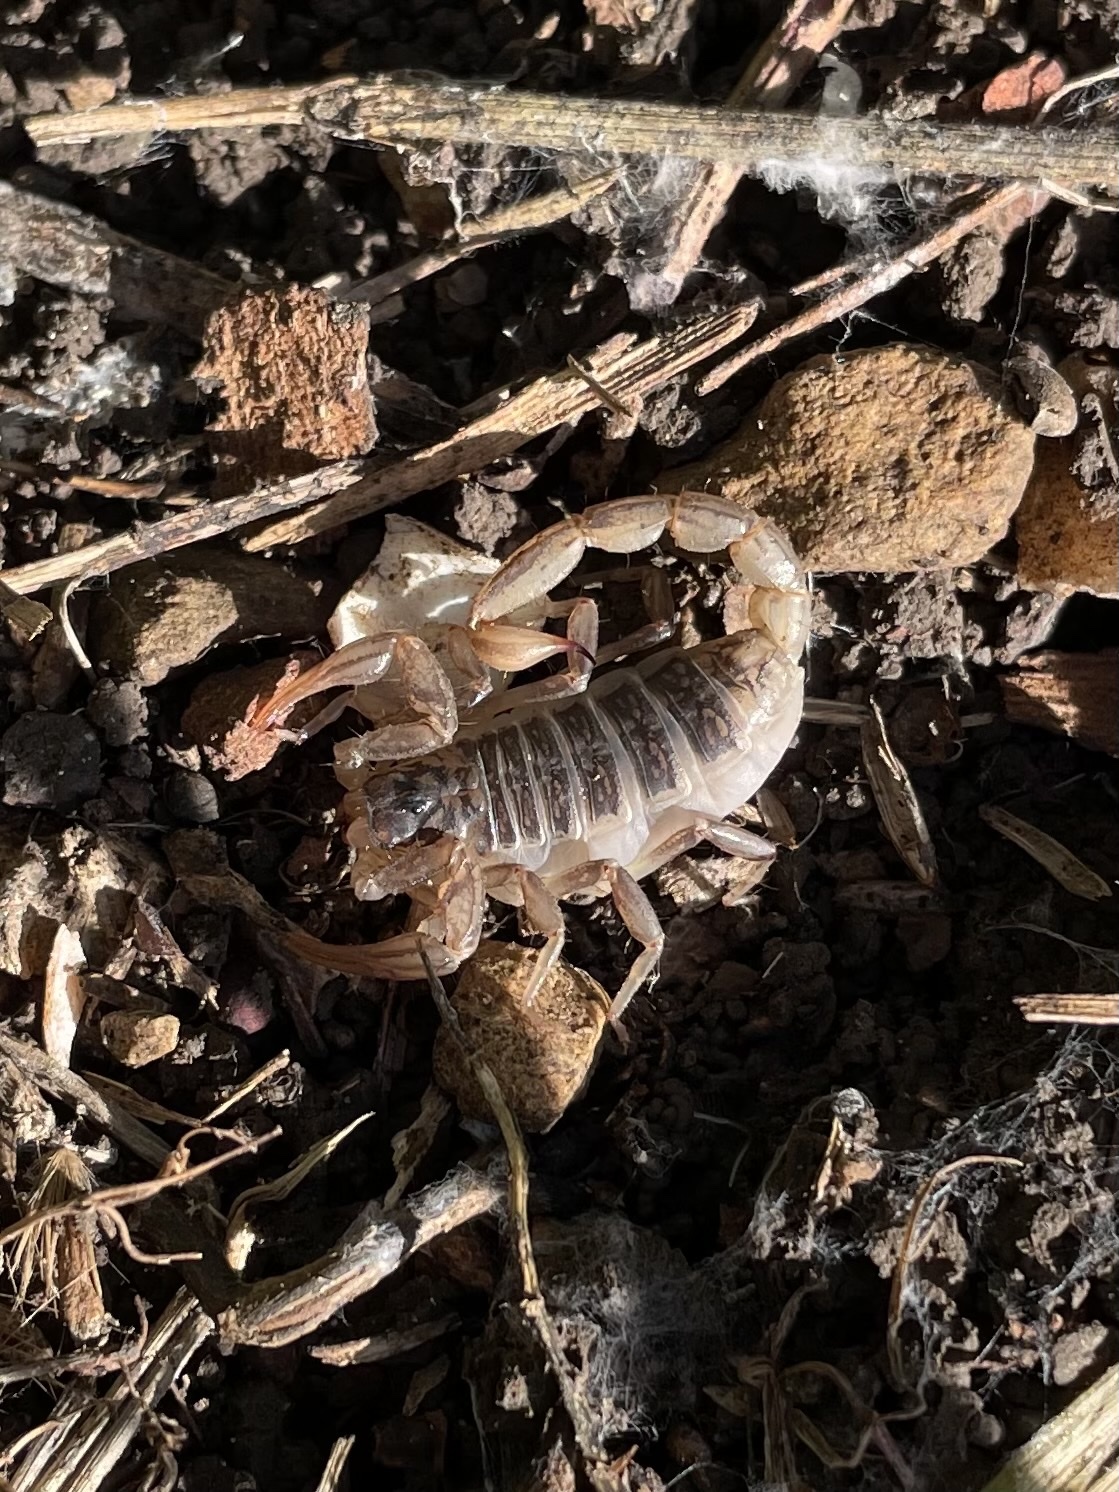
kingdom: Animalia
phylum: Arthropoda
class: Arachnida
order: Scorpiones
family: Vaejovidae
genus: Paruroctonus
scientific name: Paruroctonus silvestrii
